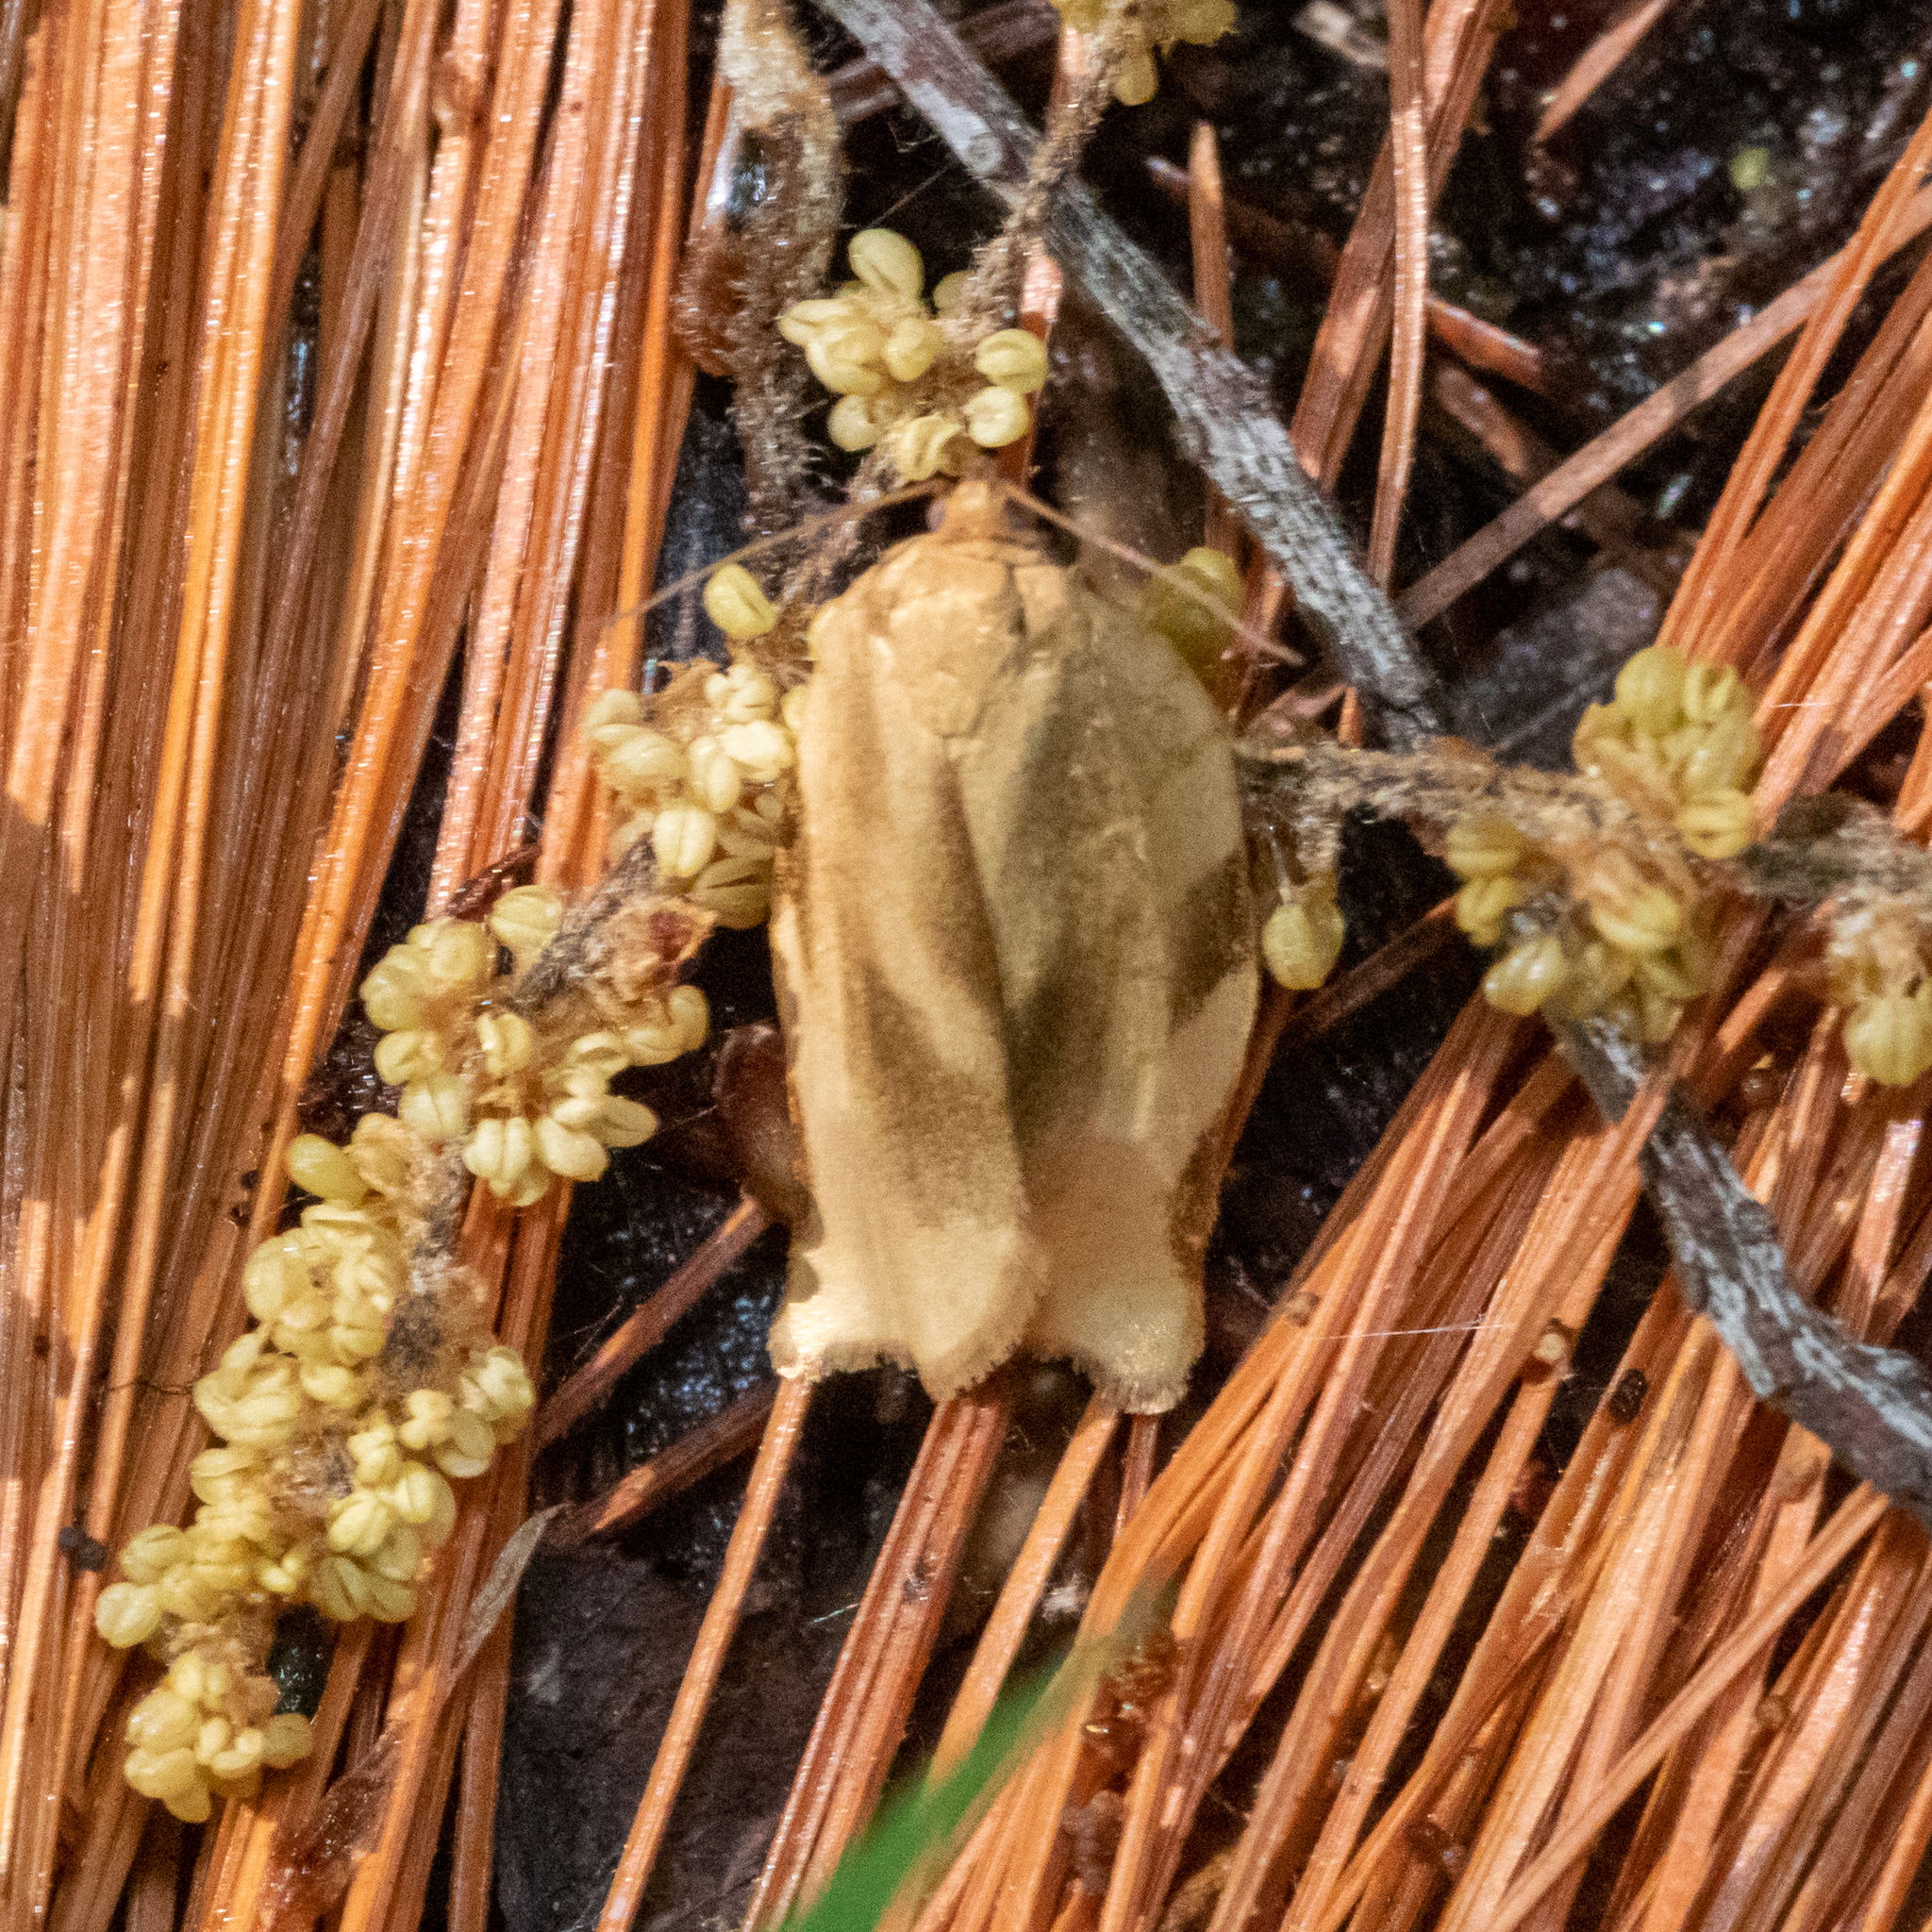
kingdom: Animalia
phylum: Arthropoda
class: Insecta
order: Lepidoptera
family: Tortricidae
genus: Choristoneura
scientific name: Choristoneura fractivittana
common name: Broken-banded leafroller moth
